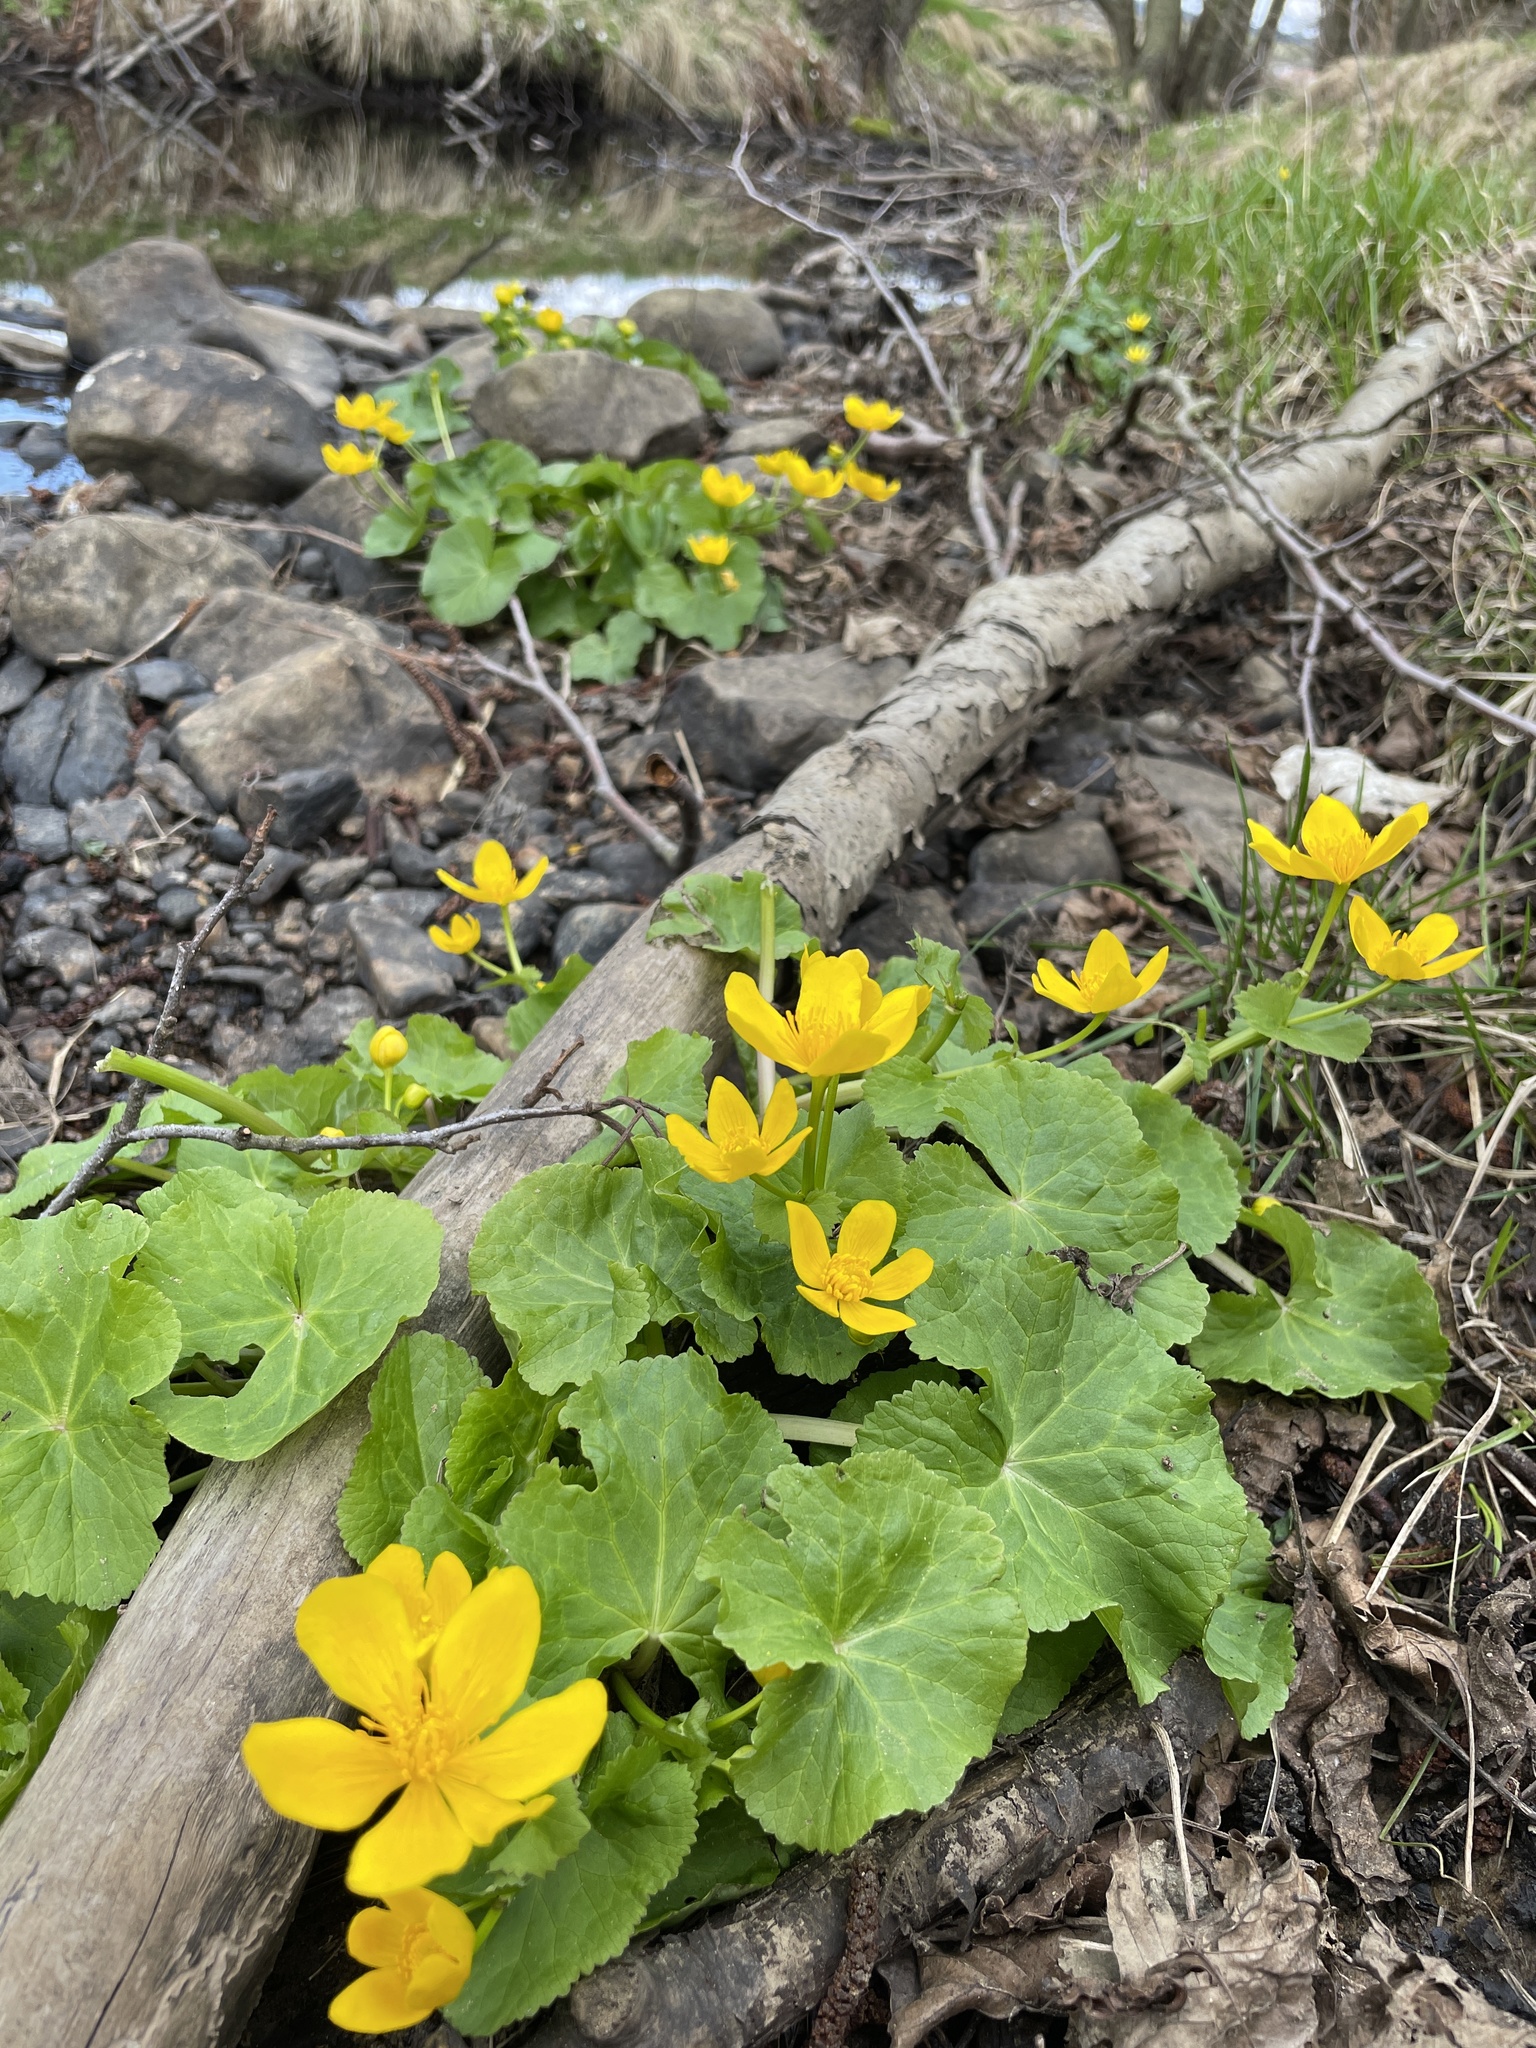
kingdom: Plantae
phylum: Tracheophyta
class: Magnoliopsida
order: Ranunculales
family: Ranunculaceae
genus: Caltha
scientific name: Caltha palustris
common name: Marsh marigold
